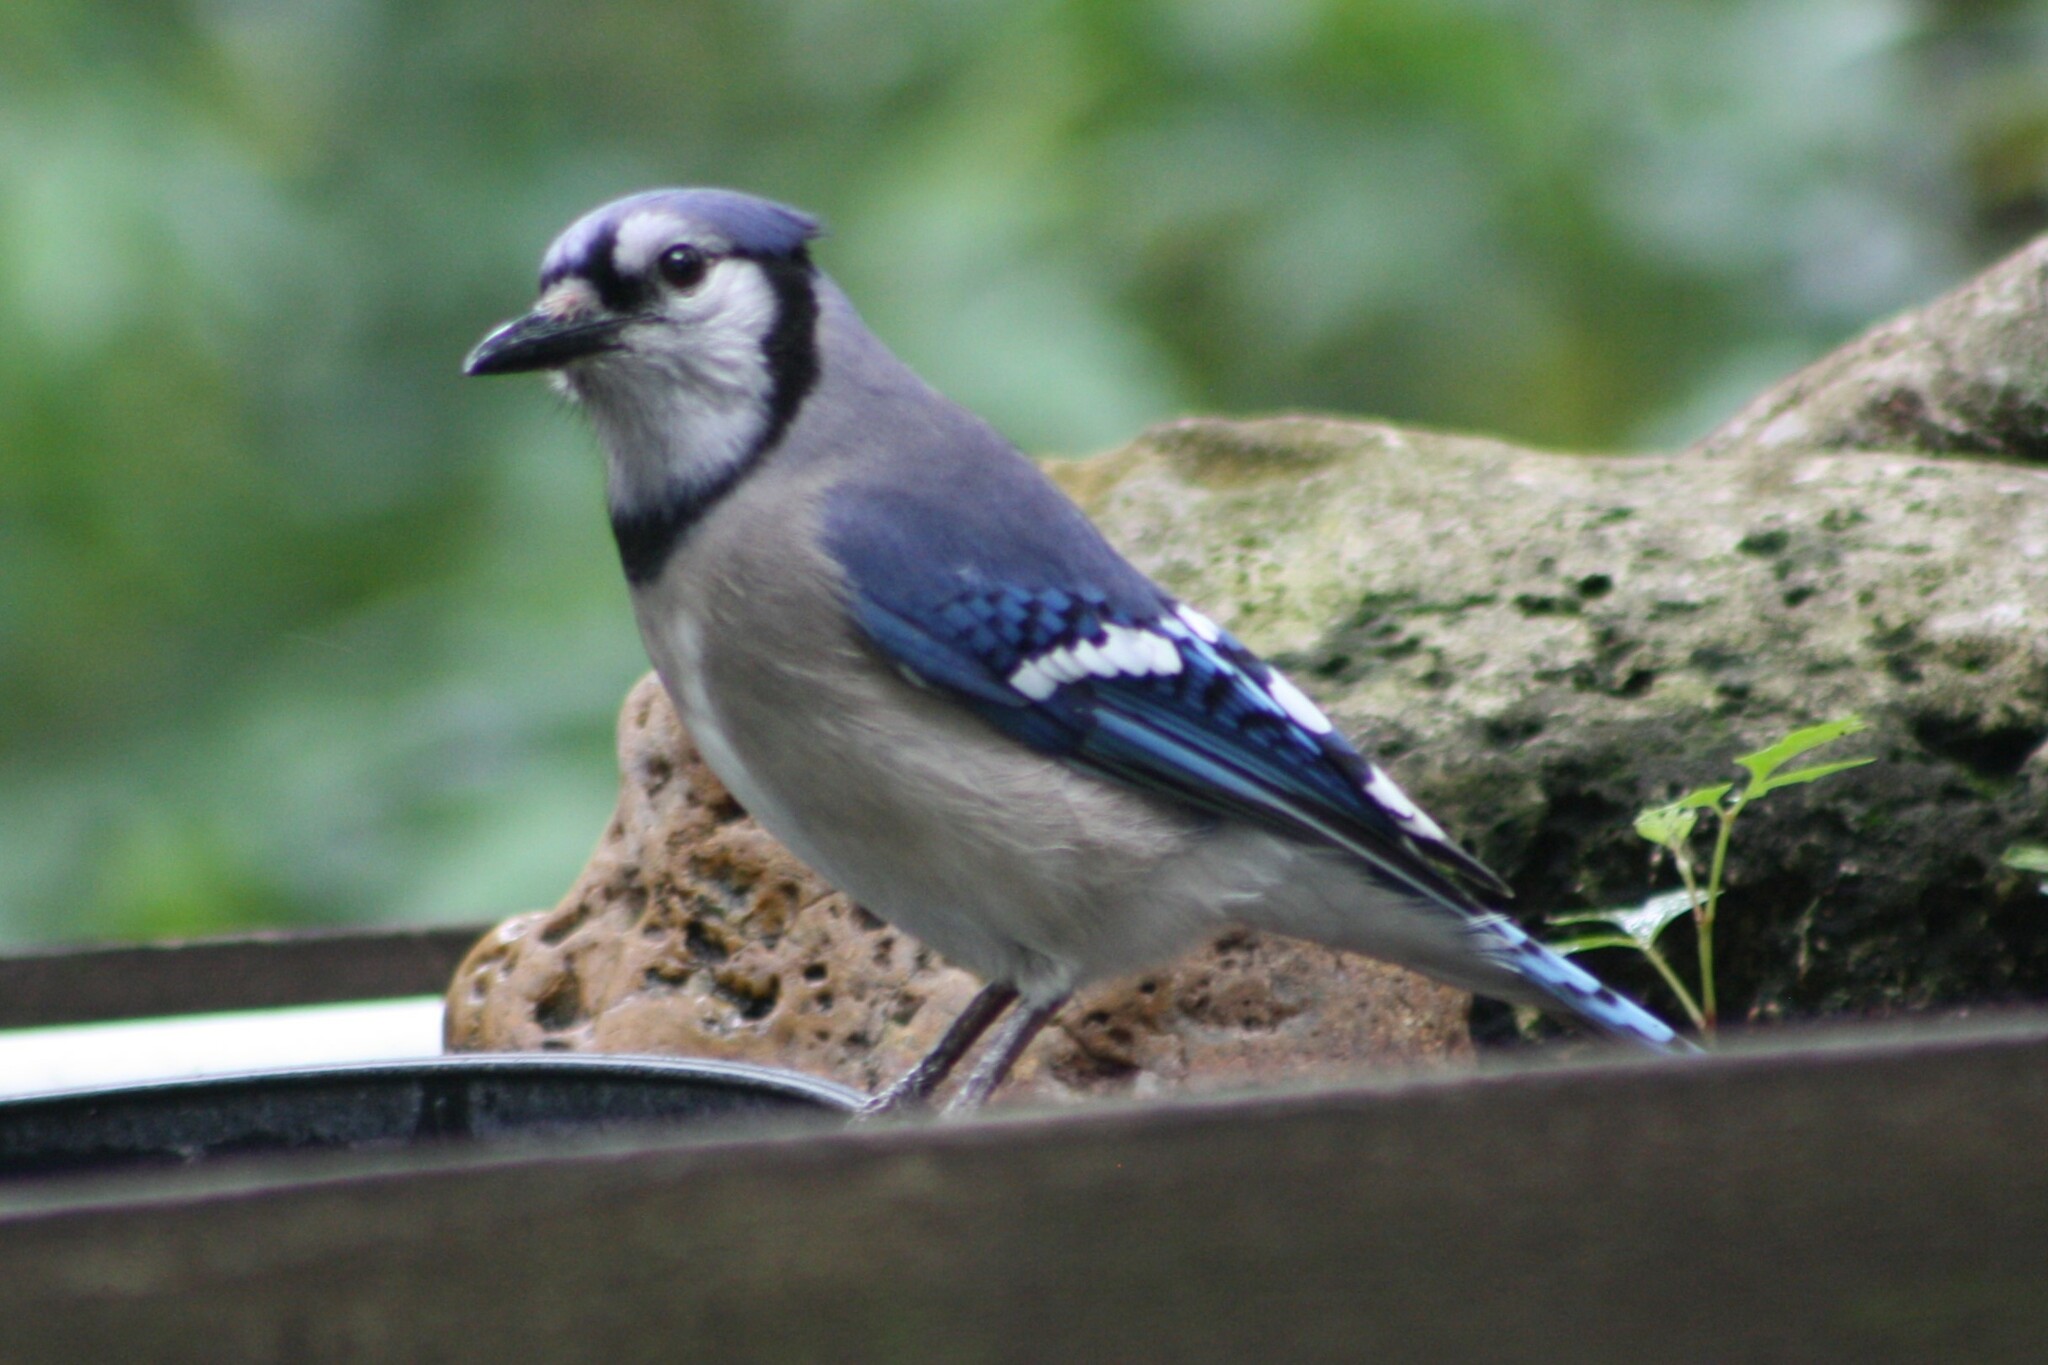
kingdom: Animalia
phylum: Chordata
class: Aves
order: Passeriformes
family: Corvidae
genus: Cyanocitta
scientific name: Cyanocitta cristata
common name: Blue jay
